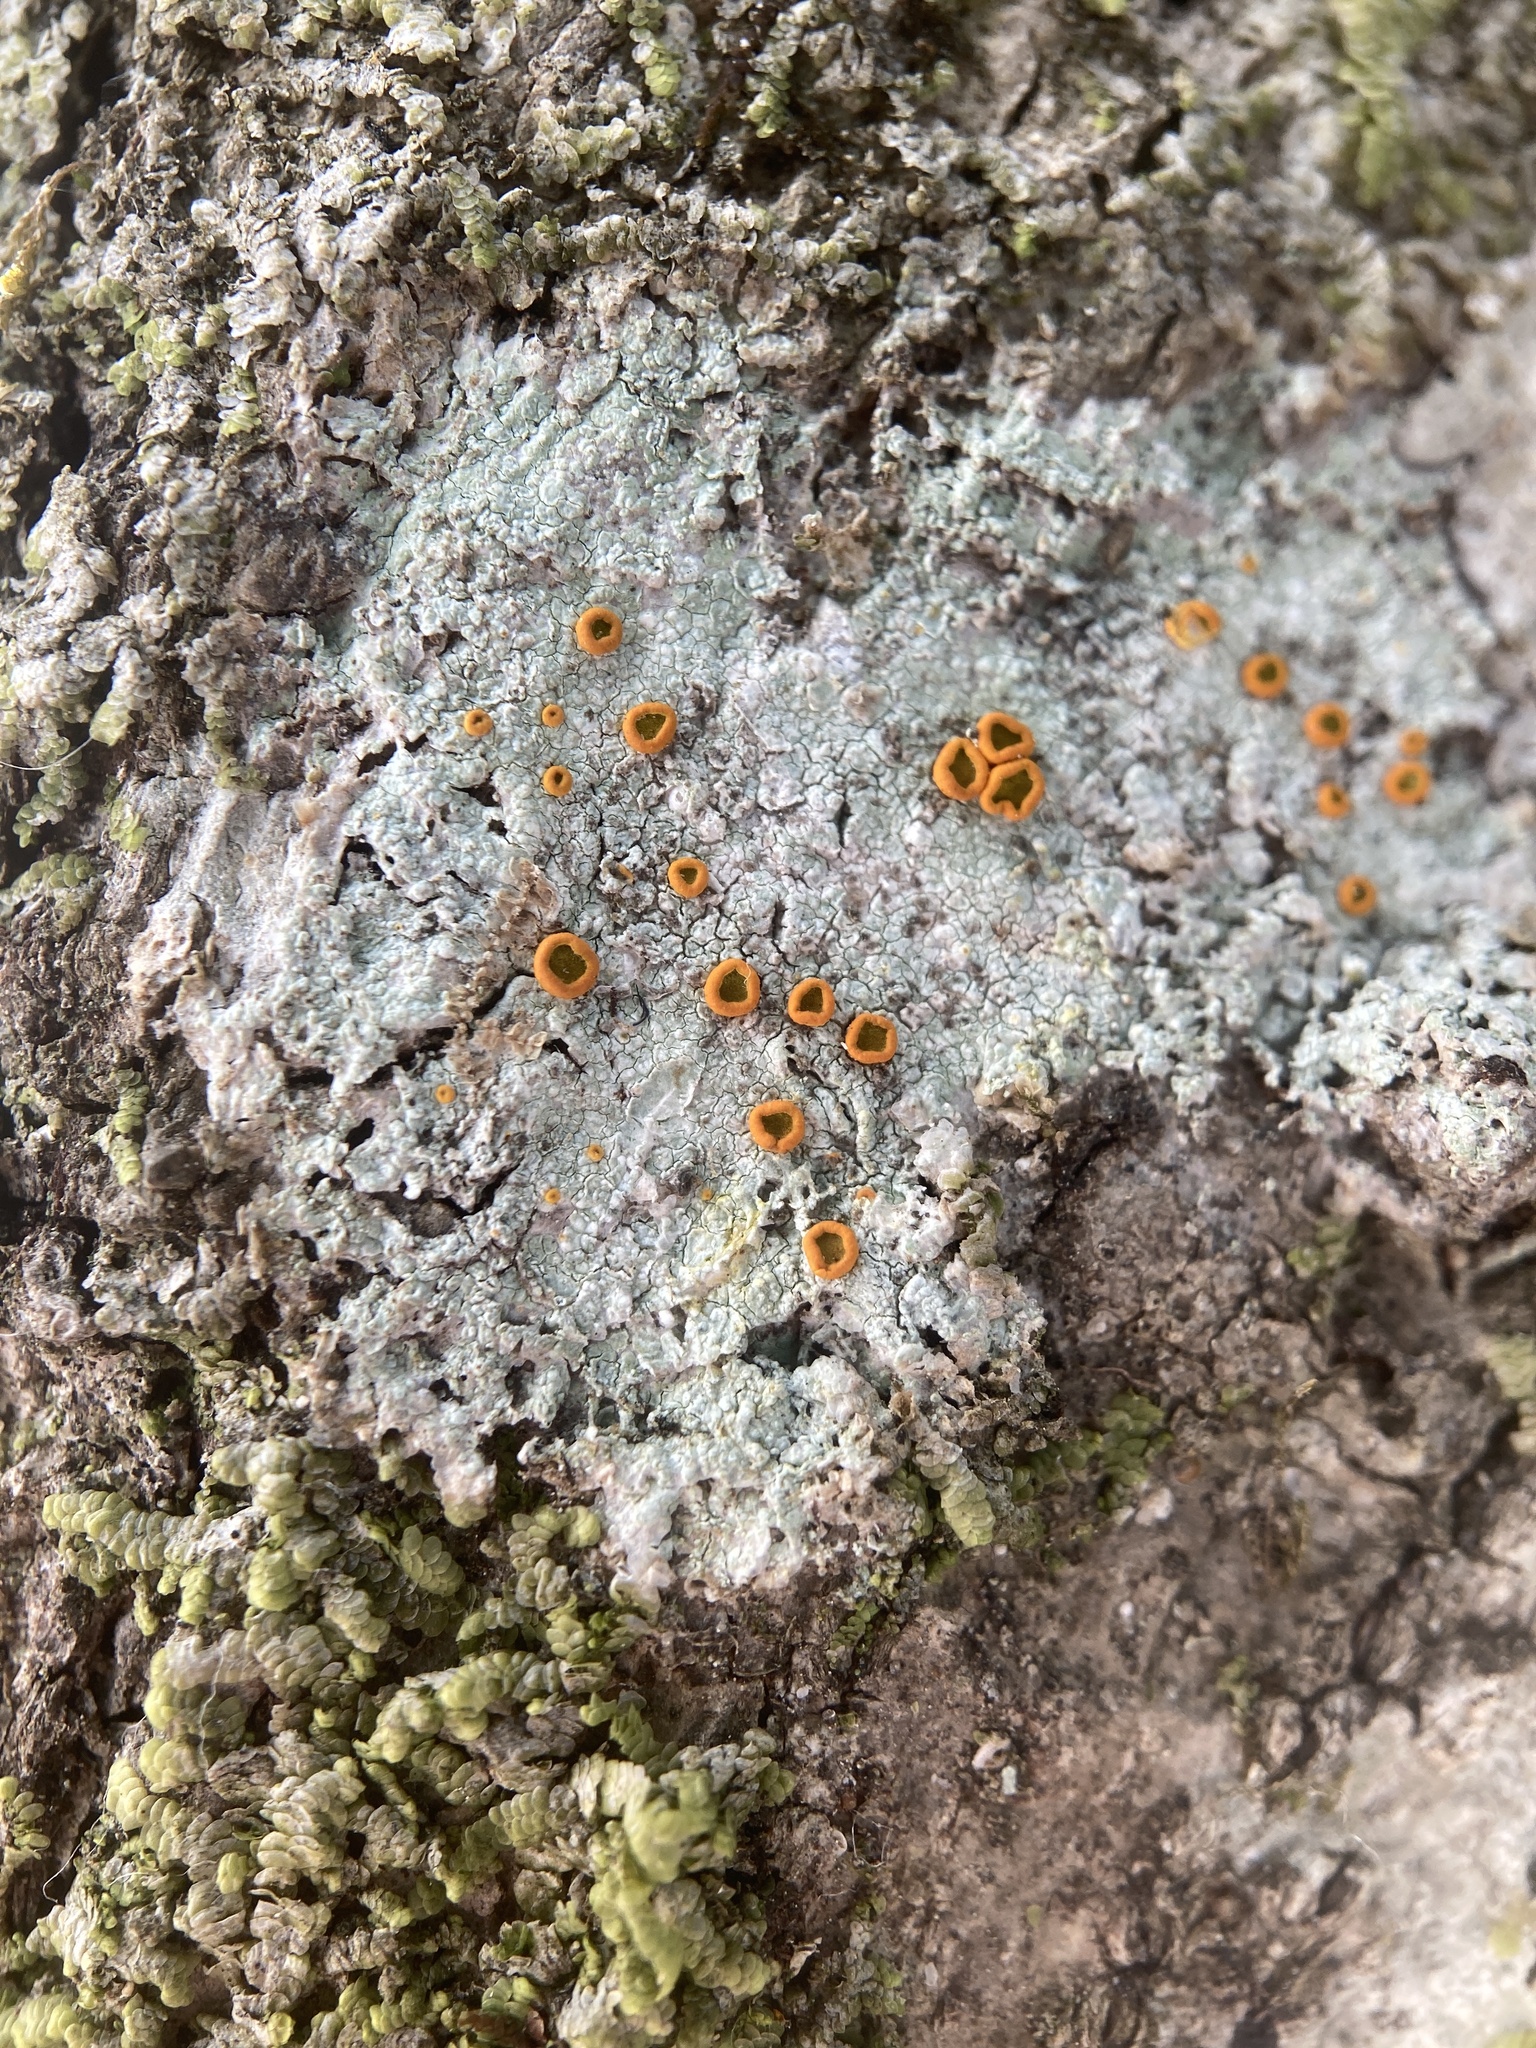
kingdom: Fungi
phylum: Ascomycota
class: Lecanoromycetes
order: Teloschistales
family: Brigantiaeaceae
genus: Brigantiaea
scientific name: Brigantiaea leucoxantha
